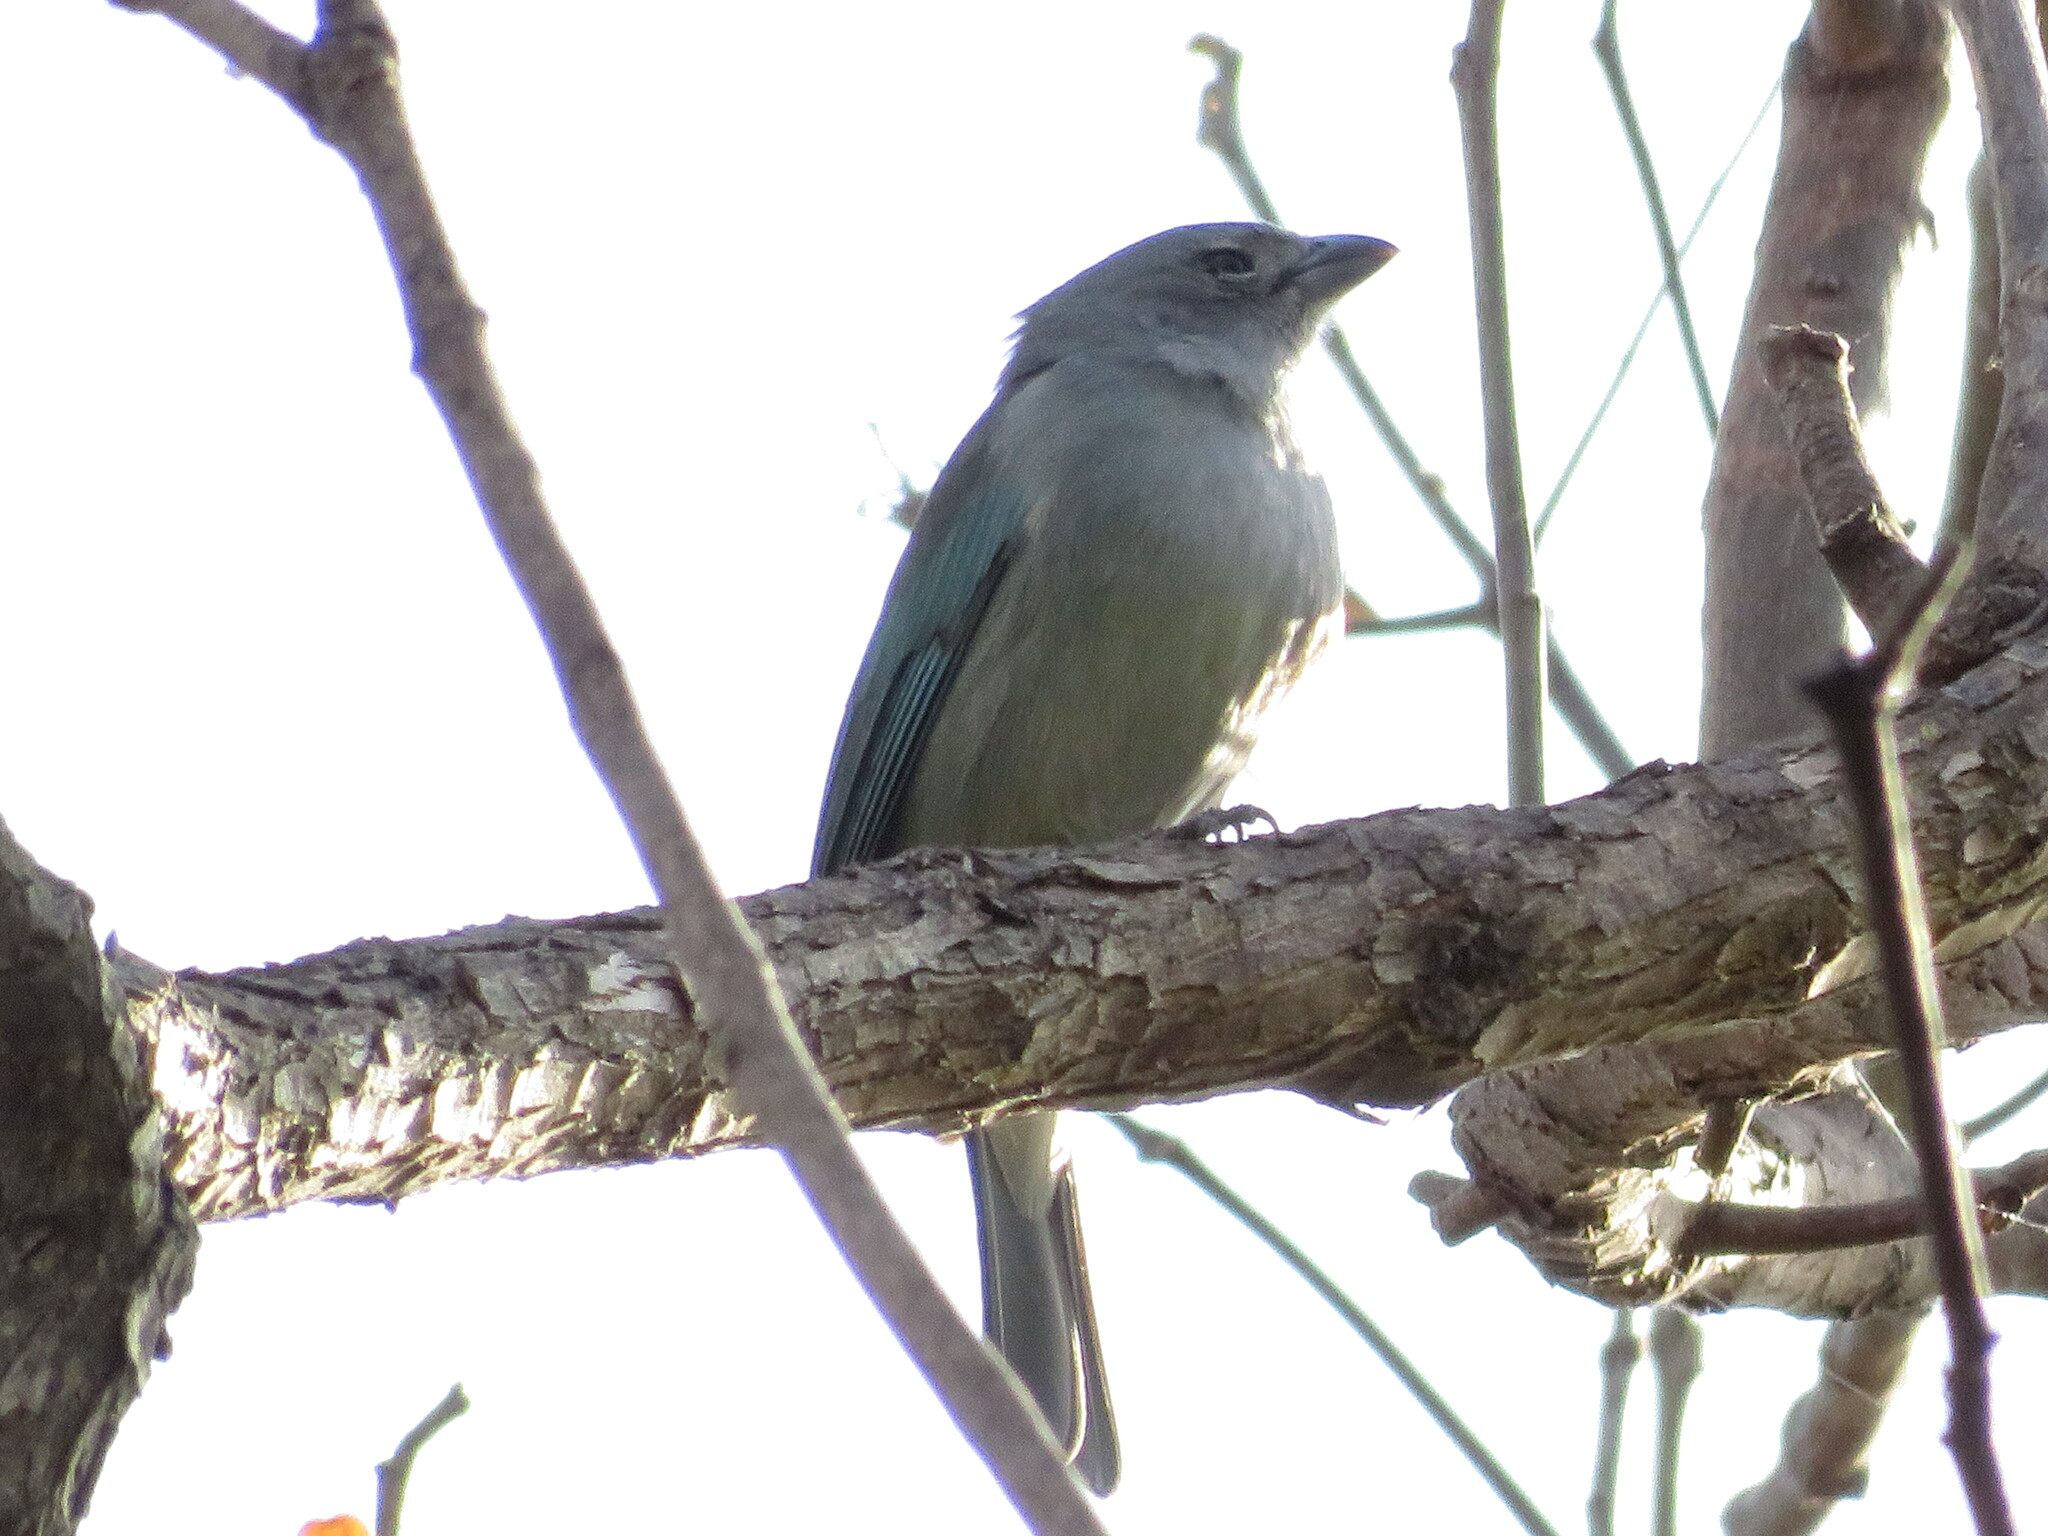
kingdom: Animalia
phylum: Chordata
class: Aves
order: Passeriformes
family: Thraupidae
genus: Thraupis
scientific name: Thraupis sayaca
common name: Sayaca tanager
